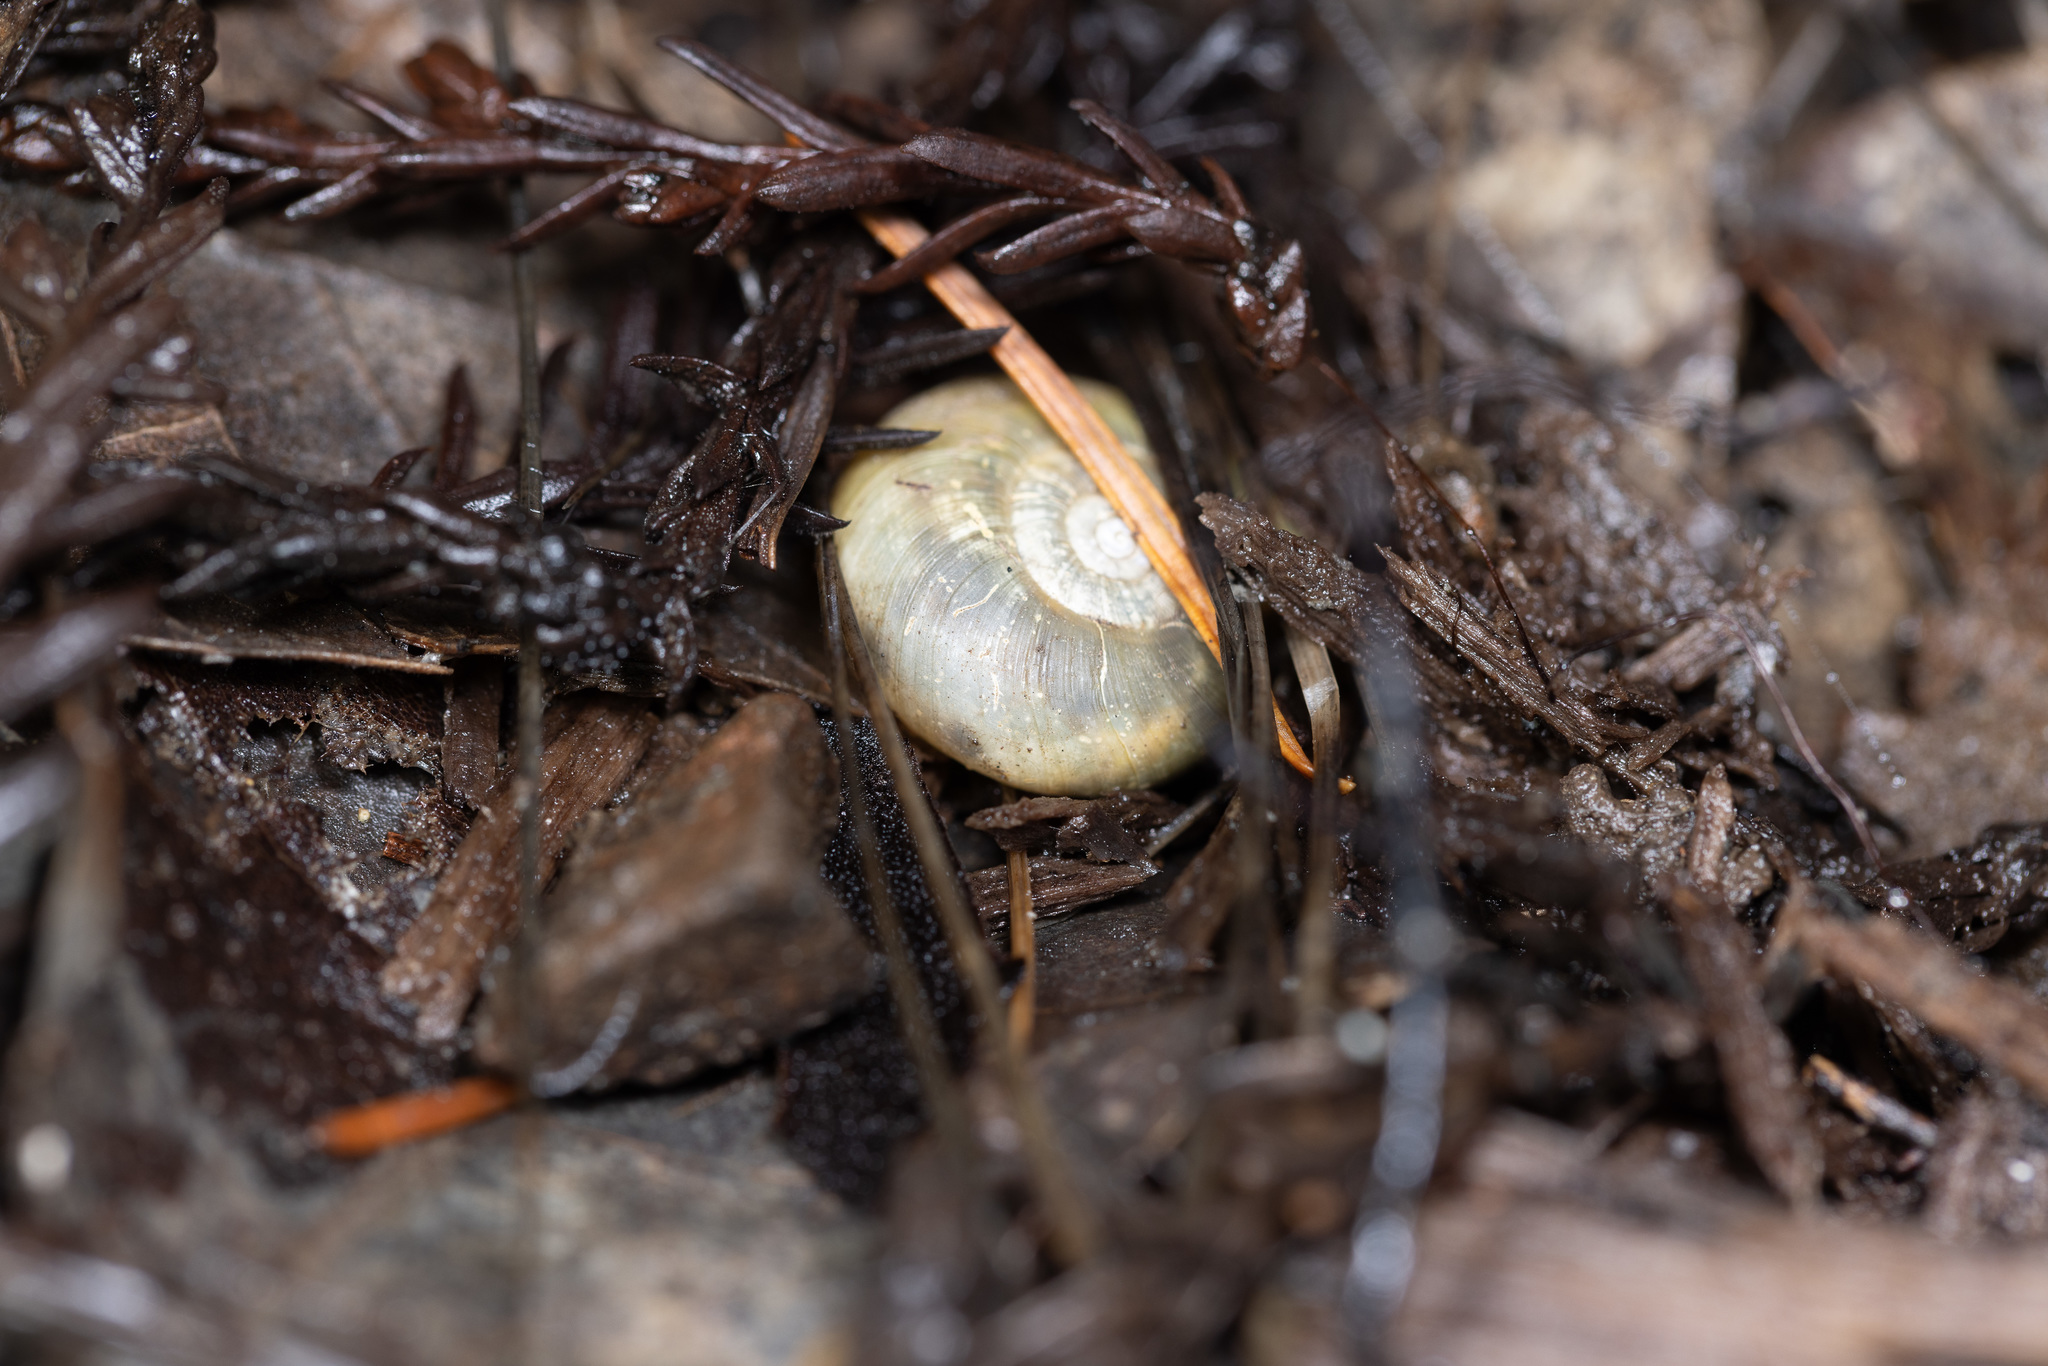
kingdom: Animalia
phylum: Mollusca
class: Gastropoda
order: Stylommatophora
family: Haplotrematidae
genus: Haplotrema
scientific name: Haplotrema minimum
